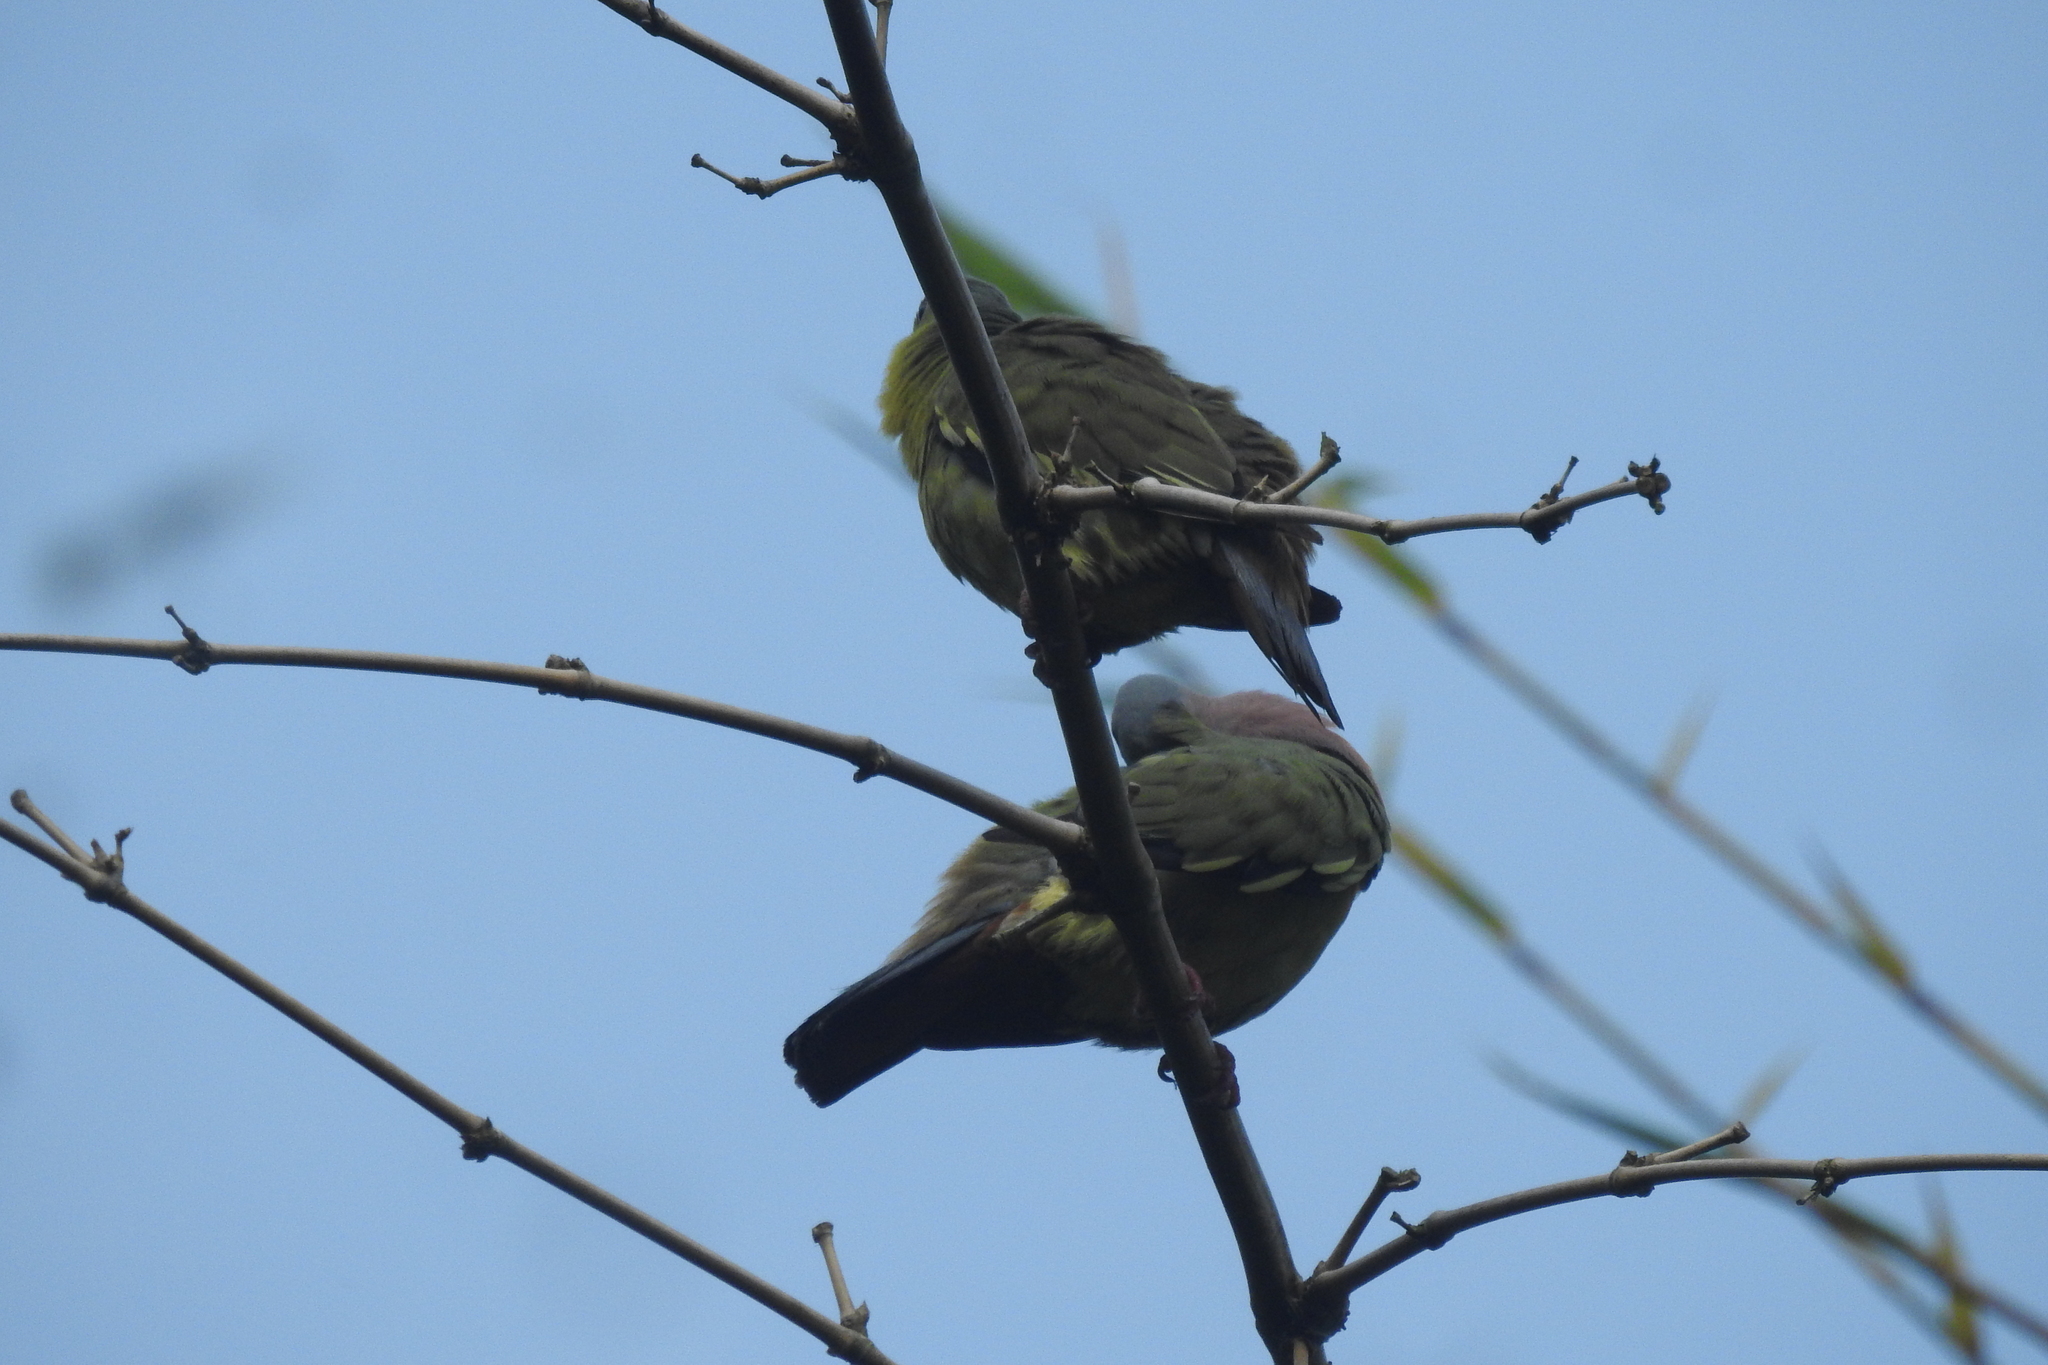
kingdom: Animalia
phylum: Chordata
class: Aves
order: Columbiformes
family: Columbidae
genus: Treron
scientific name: Treron vernans
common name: Pink-necked green pigeon
